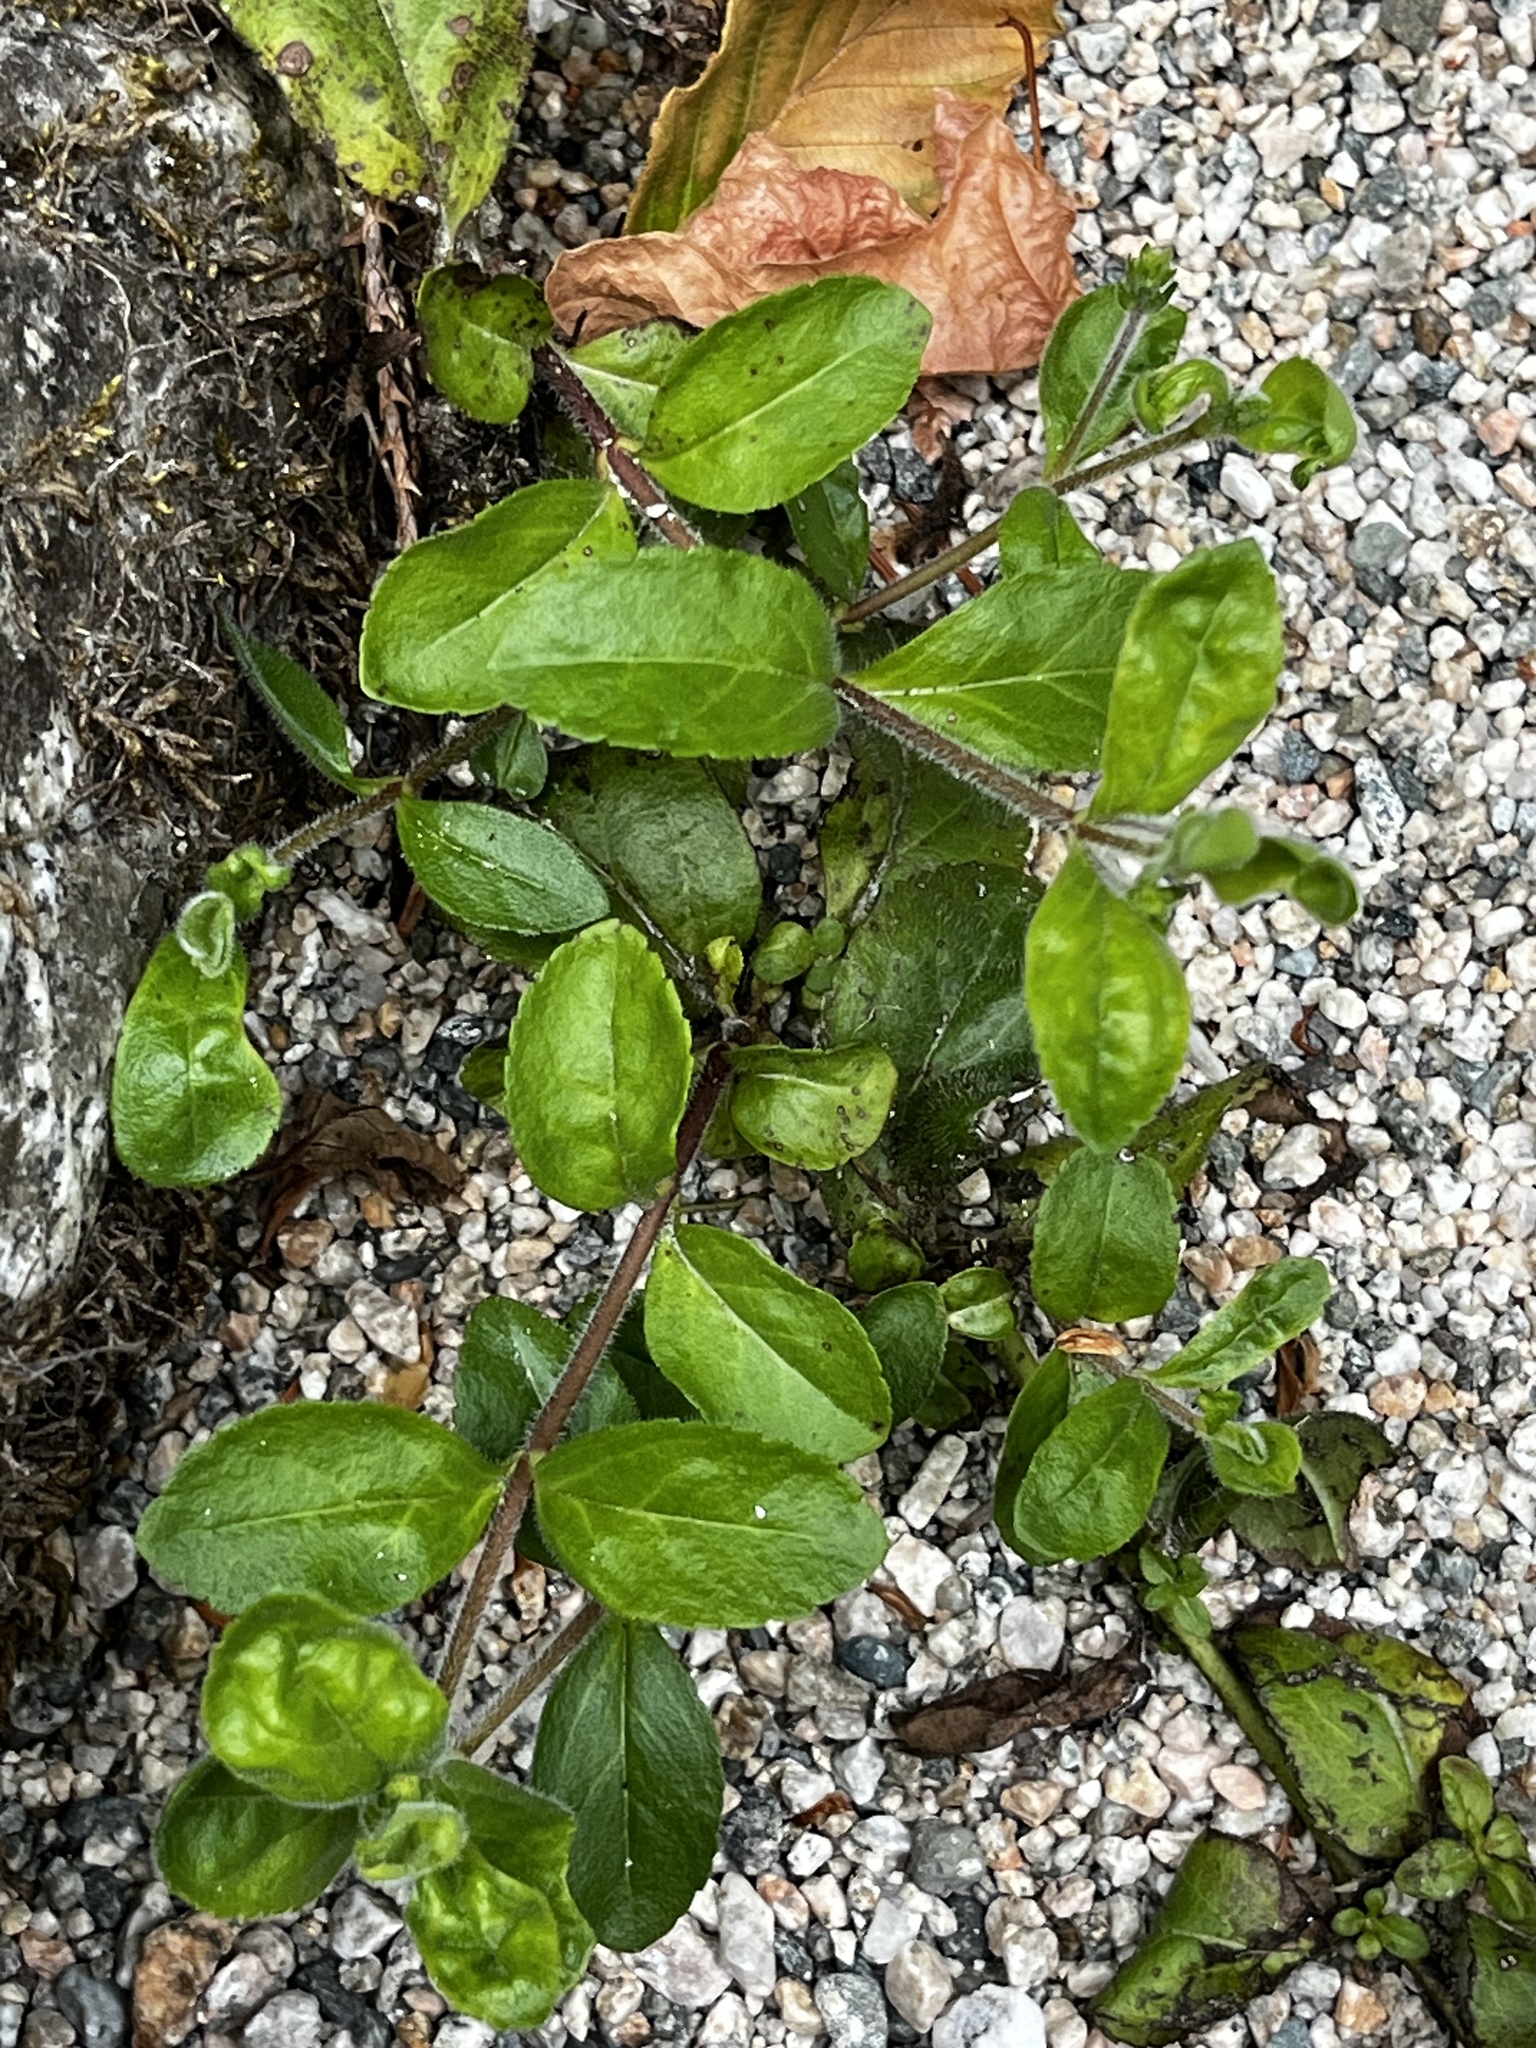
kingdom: Plantae
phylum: Tracheophyta
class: Magnoliopsida
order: Lamiales
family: Plantaginaceae
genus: Veronica
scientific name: Veronica officinalis
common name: Common speedwell
